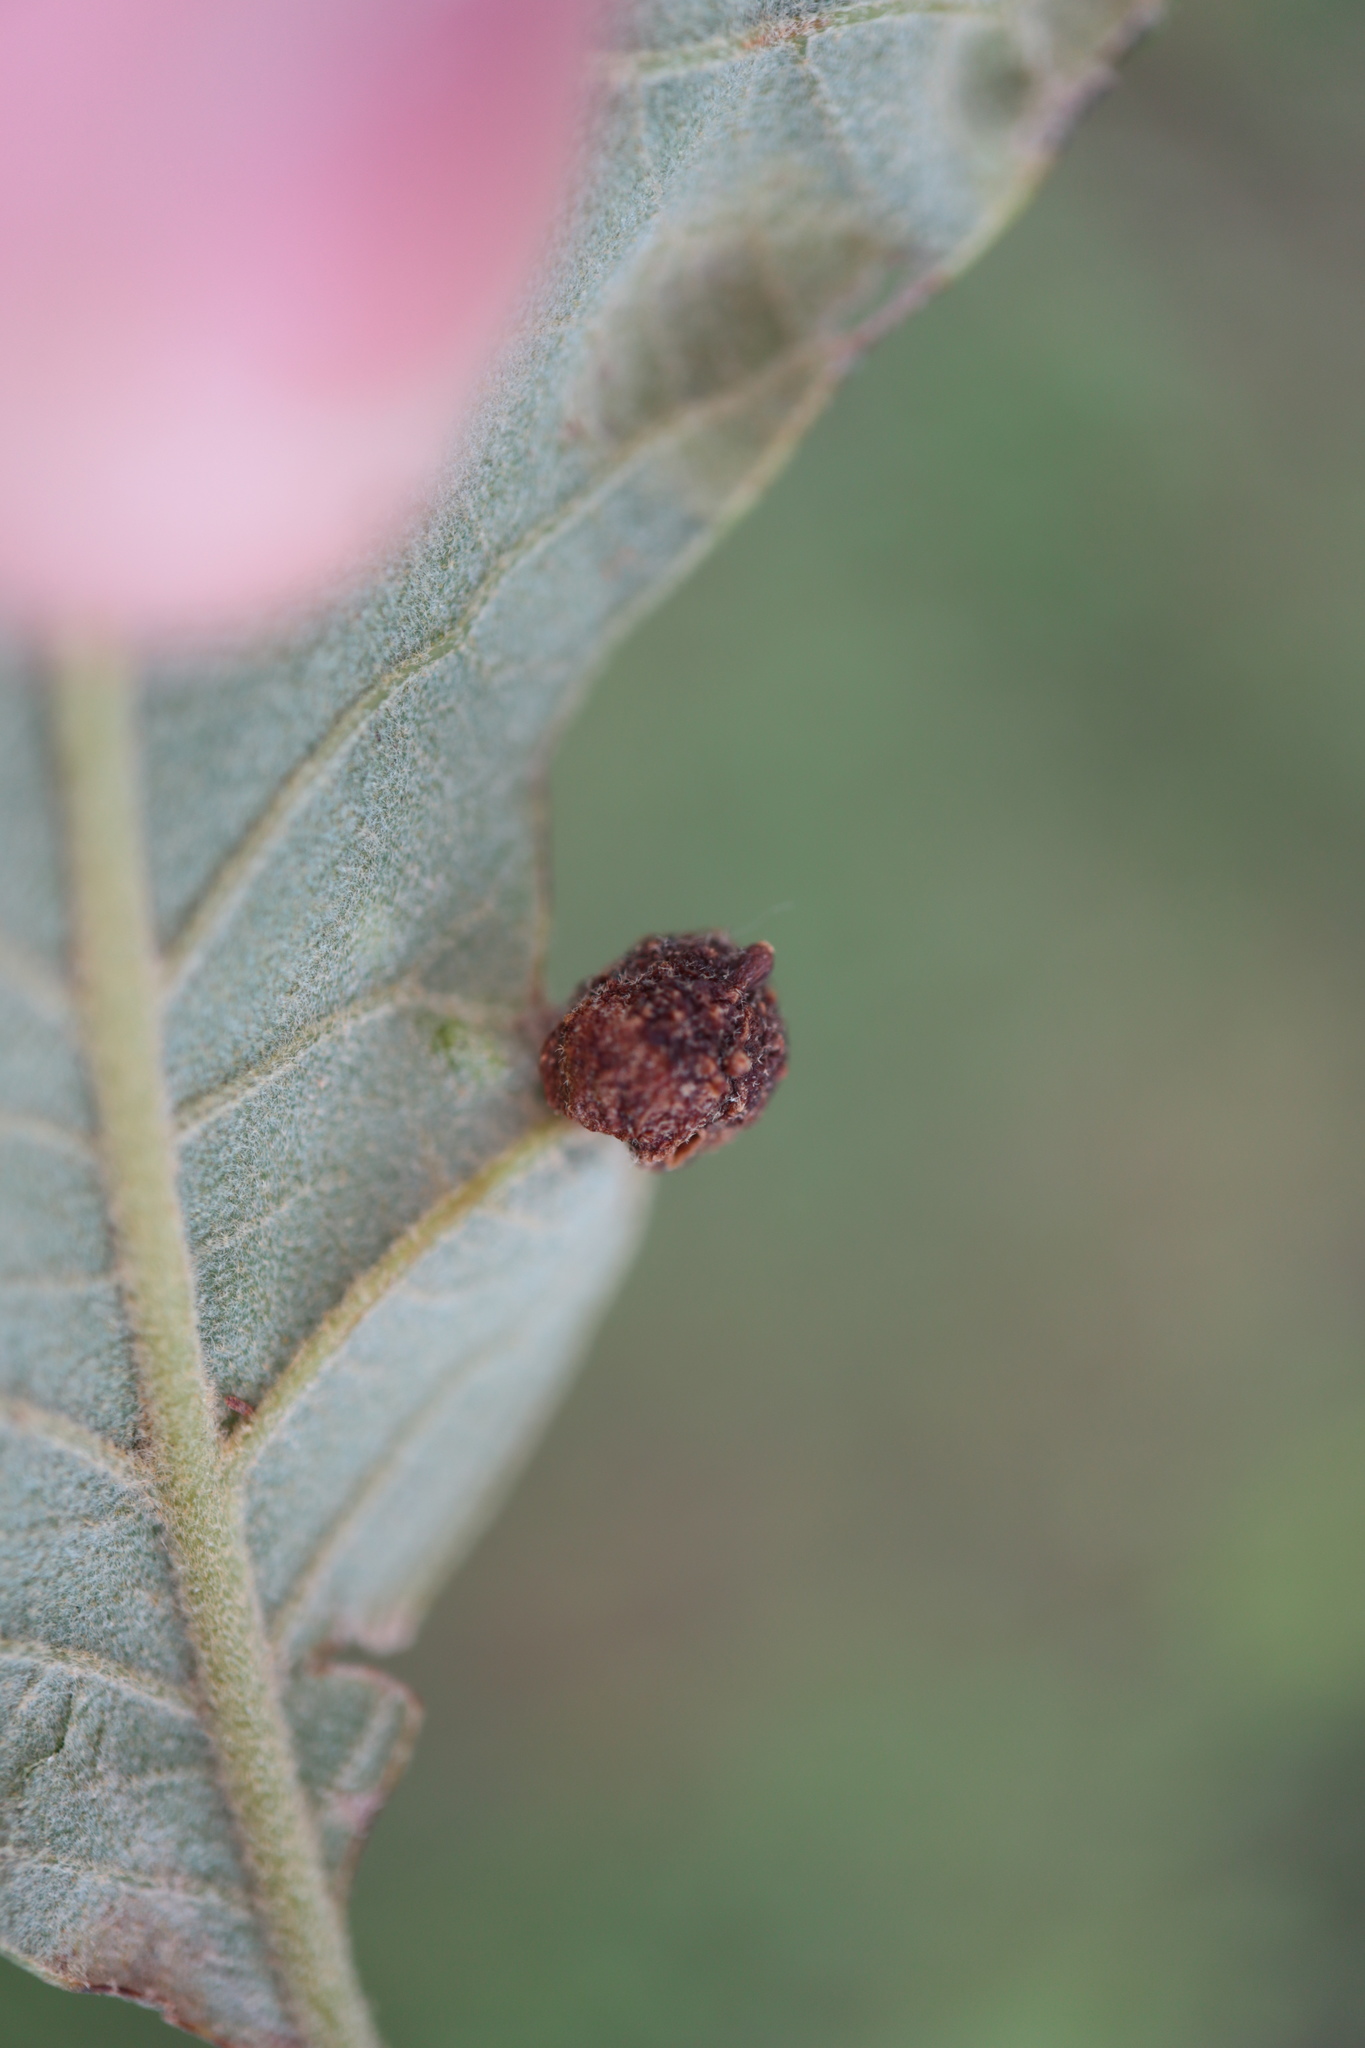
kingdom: Animalia
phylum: Arthropoda
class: Insecta
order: Hymenoptera
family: Cynipidae
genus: Dryocosmus
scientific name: Dryocosmus
